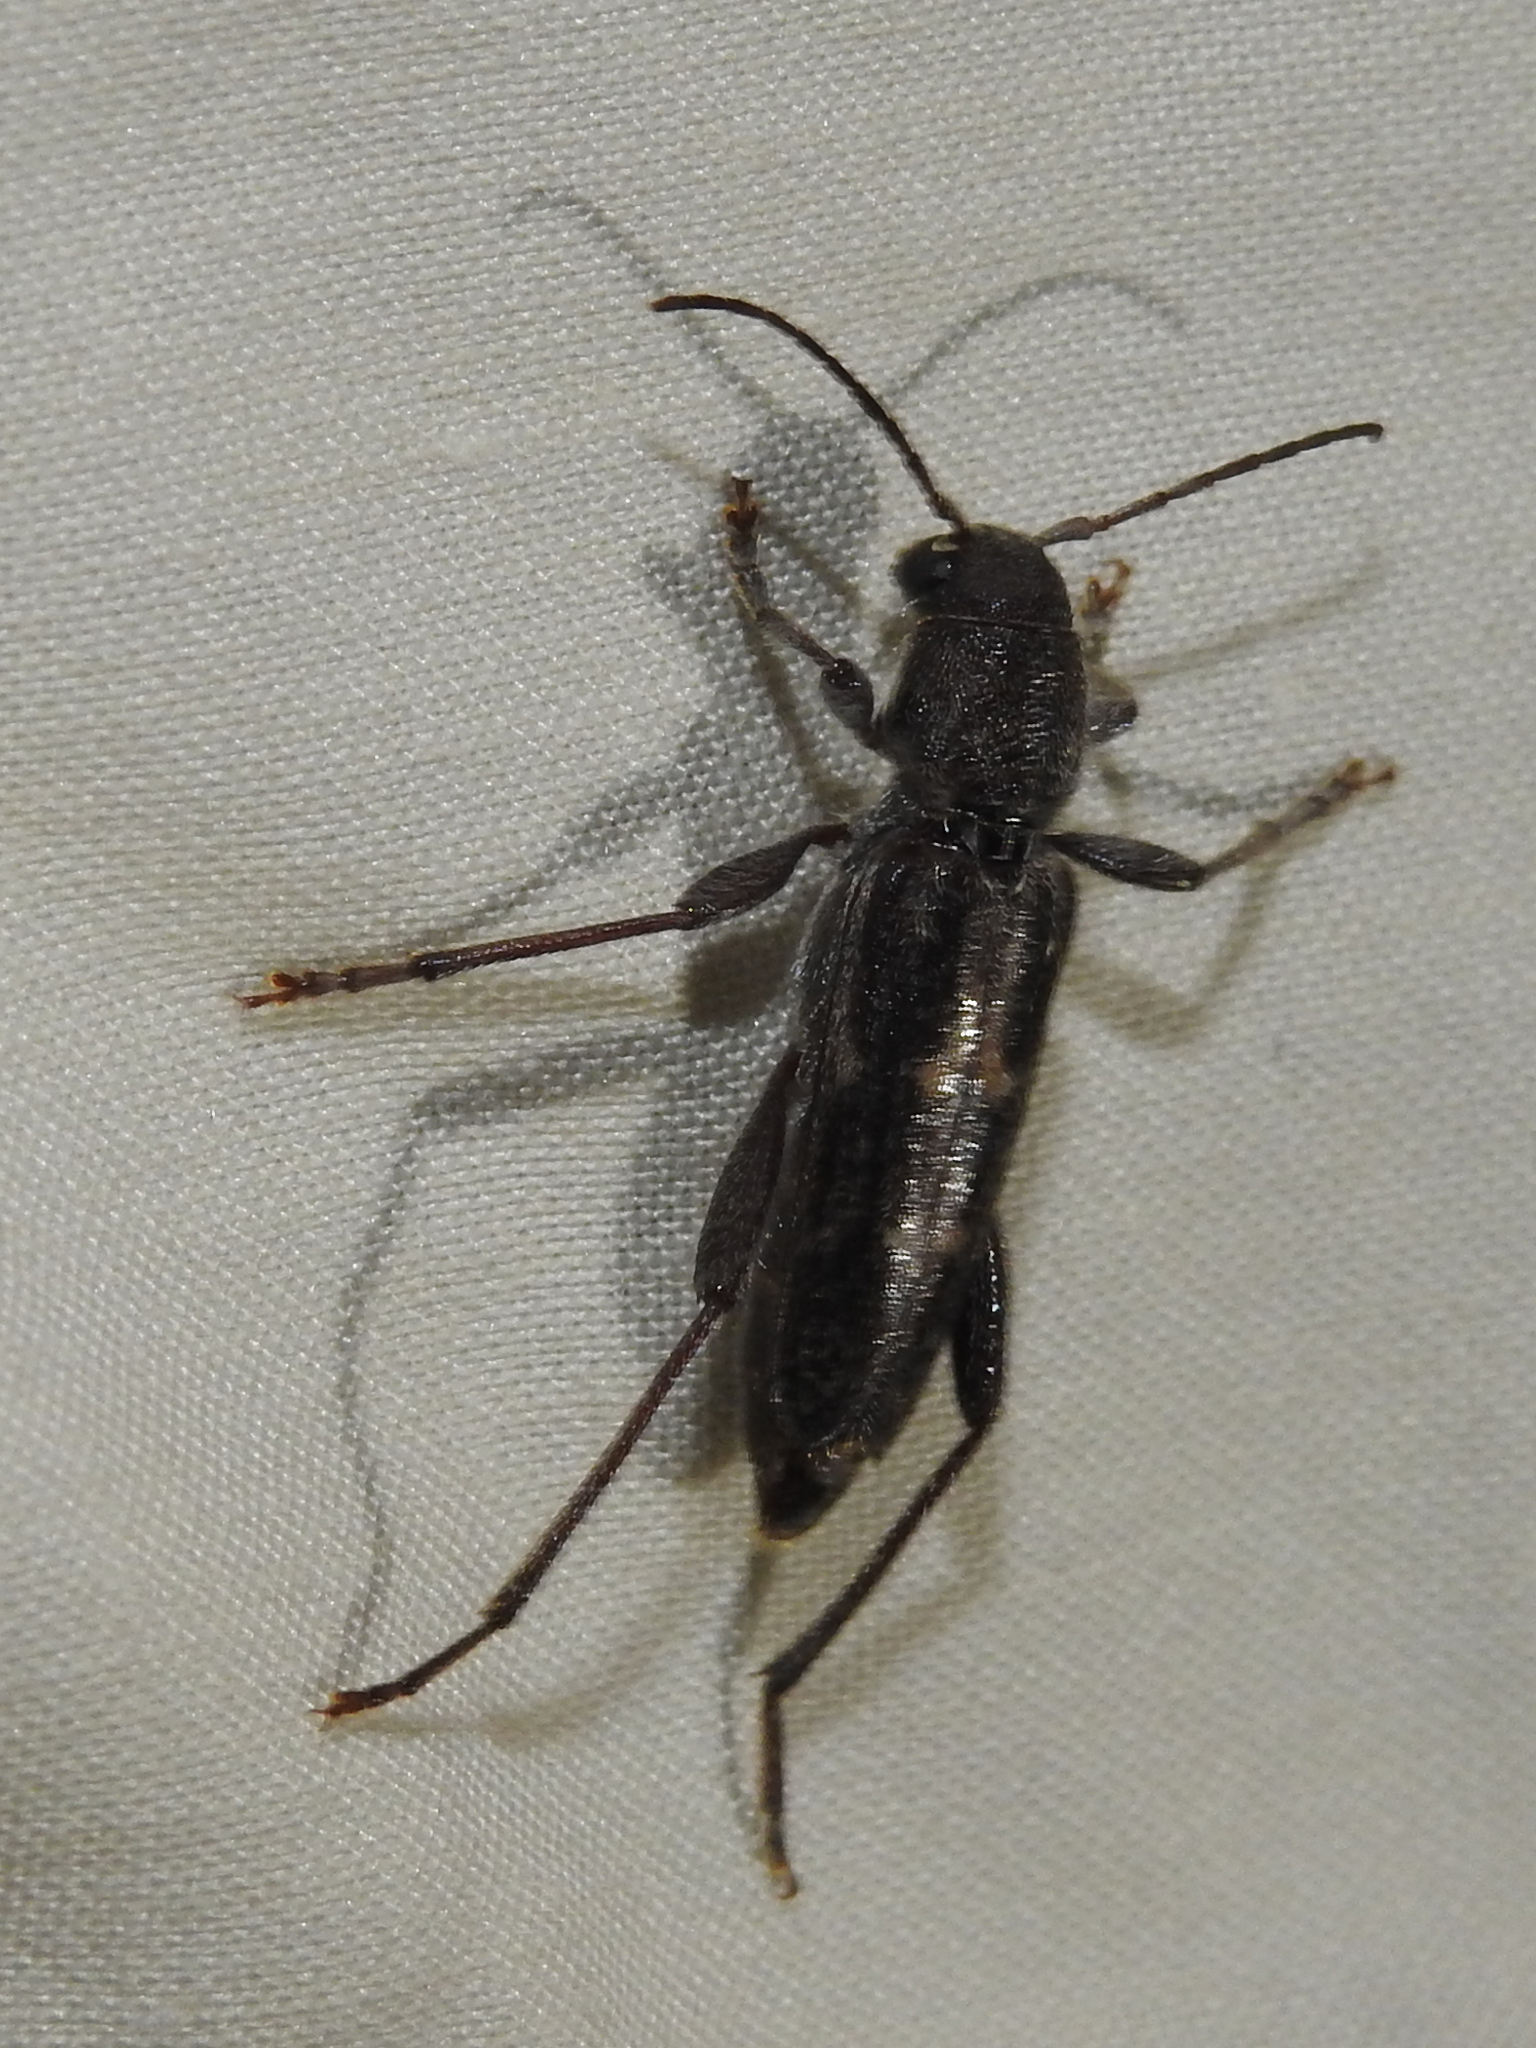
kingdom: Animalia
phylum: Arthropoda
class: Insecta
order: Coleoptera
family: Cerambycidae
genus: Xylotrechus
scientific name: Xylotrechus sagittatus
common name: Arrowhead borer
